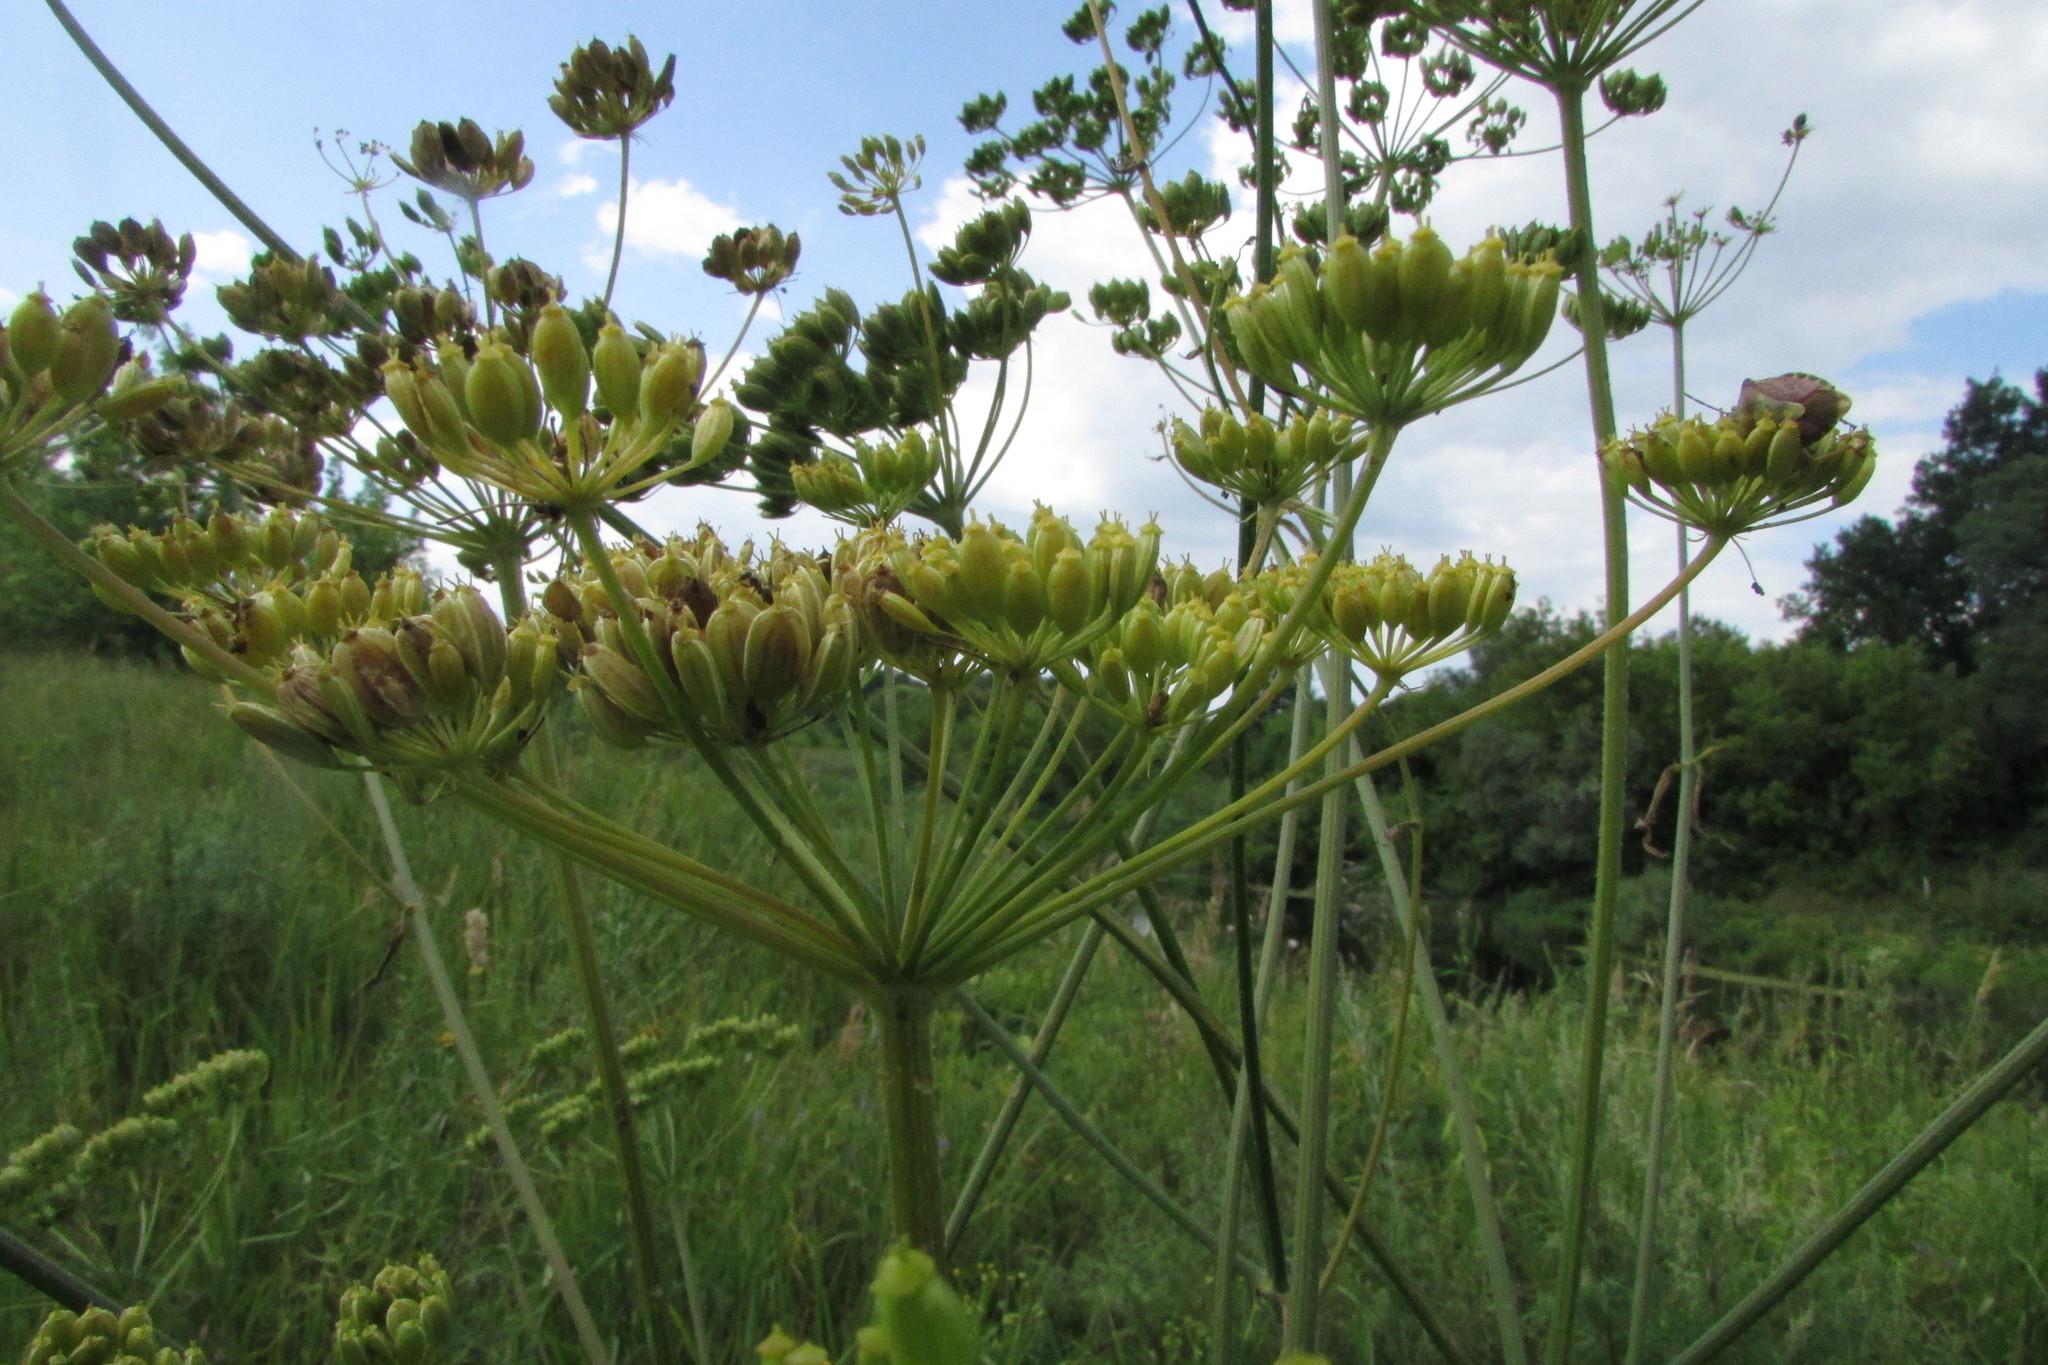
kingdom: Plantae
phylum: Tracheophyta
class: Magnoliopsida
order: Apiales
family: Apiaceae
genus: Heracleum
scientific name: Heracleum sphondylium
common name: Hogweed
